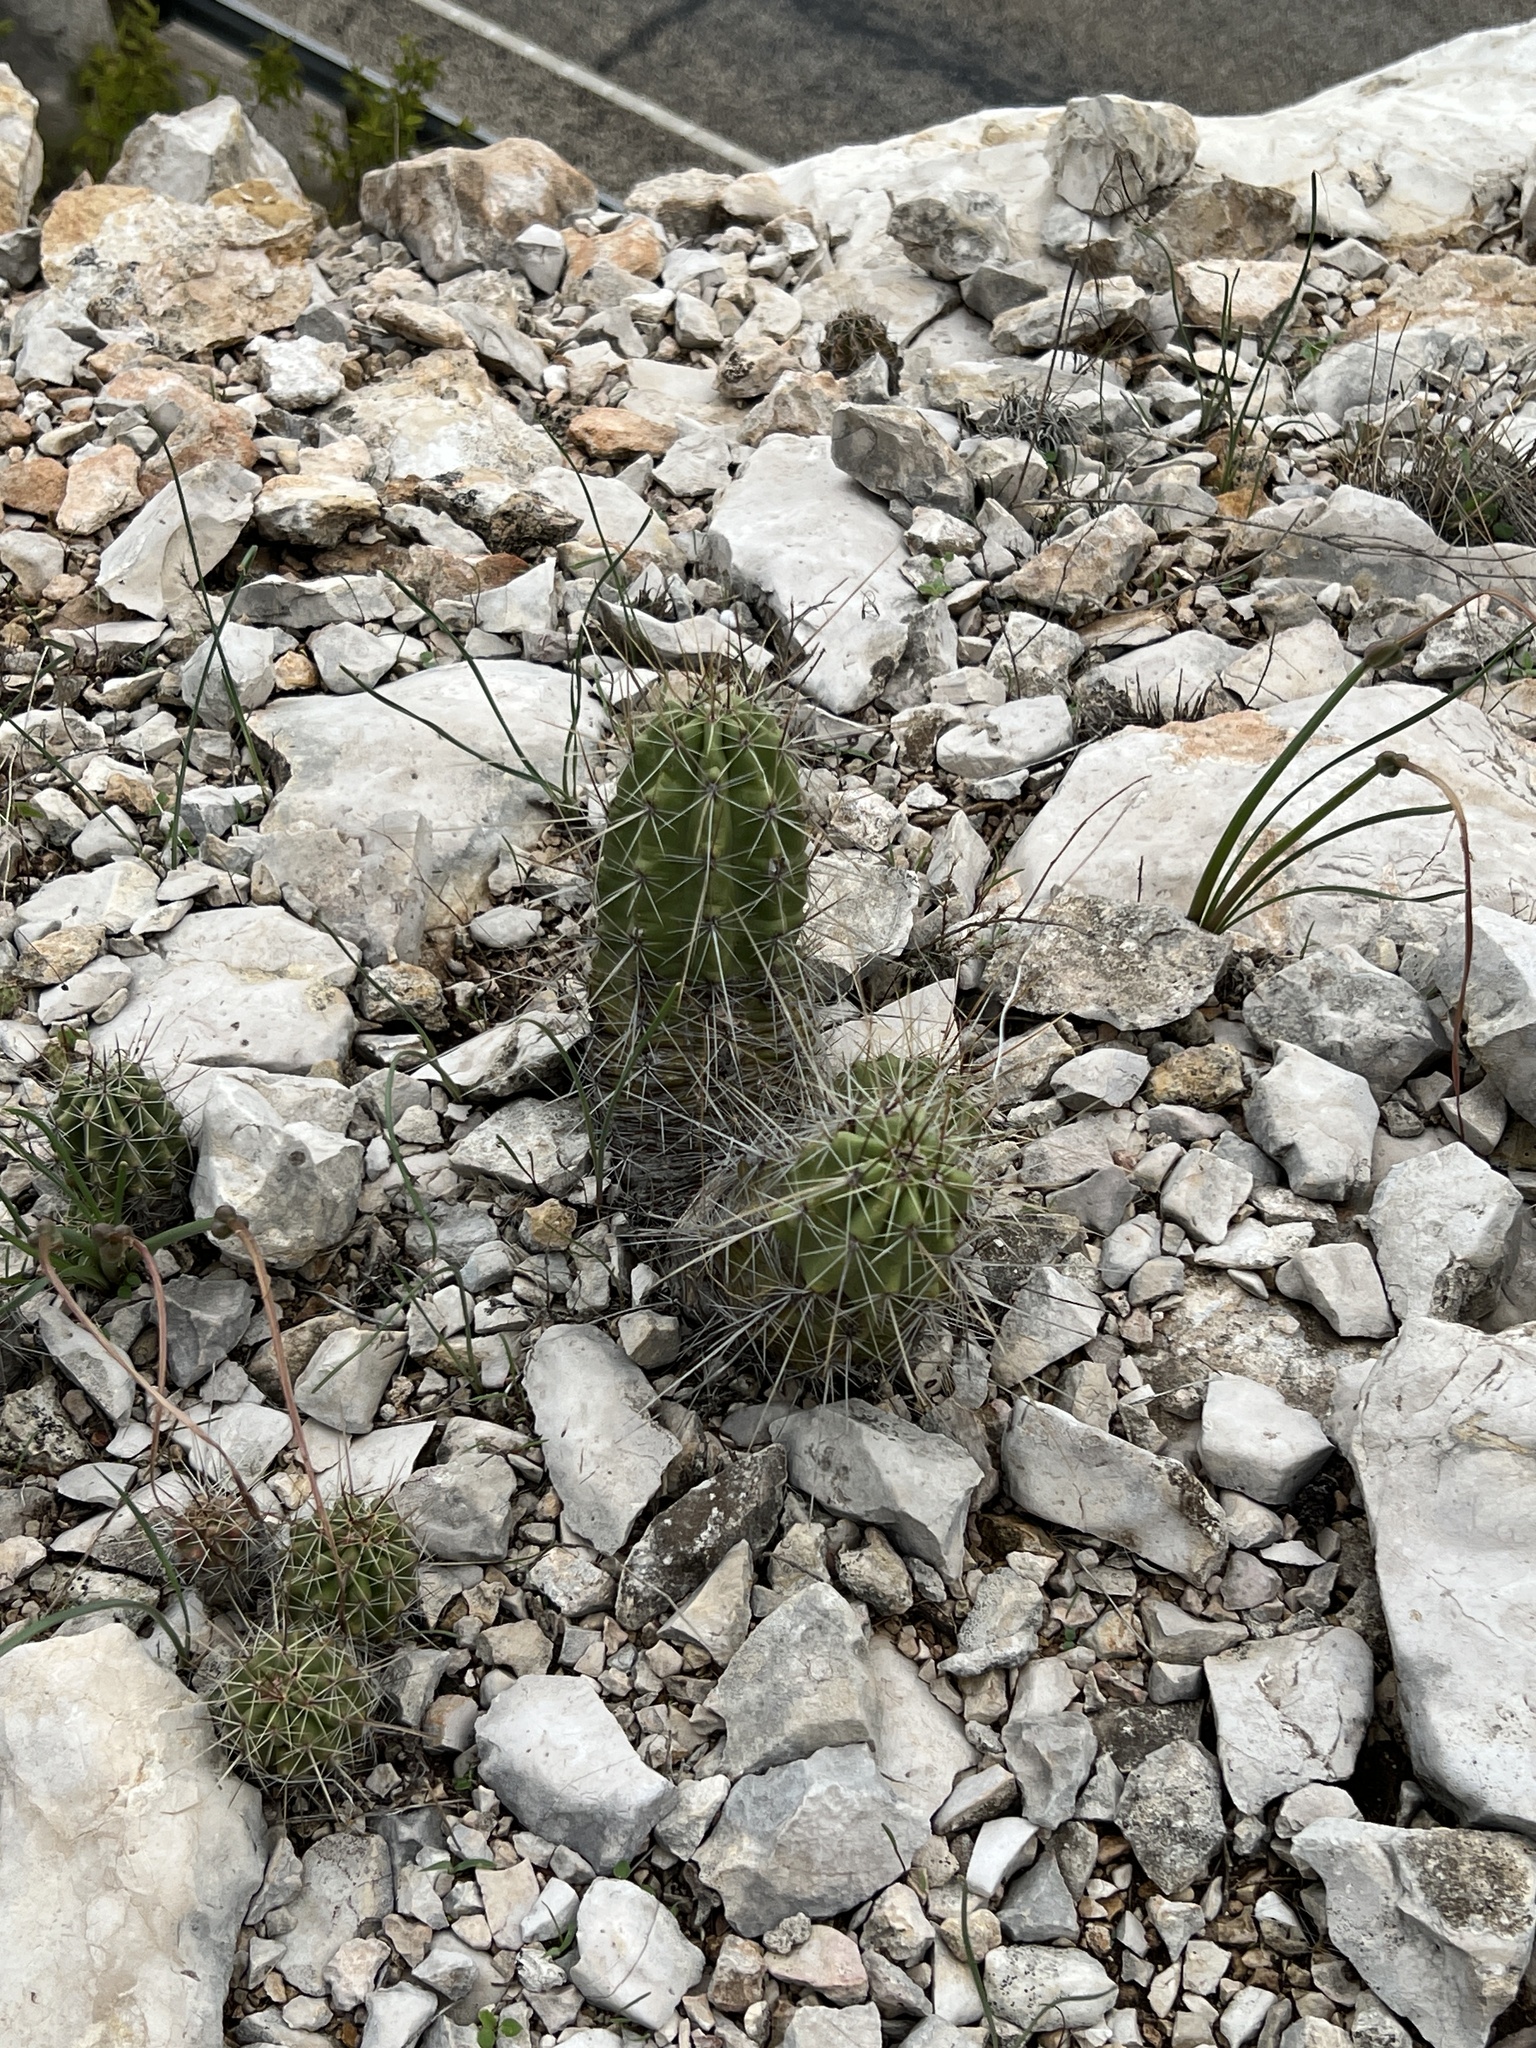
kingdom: Plantae
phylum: Tracheophyta
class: Magnoliopsida
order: Caryophyllales
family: Cactaceae
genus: Echinocereus
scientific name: Echinocereus enneacanthus
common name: Pitaya
